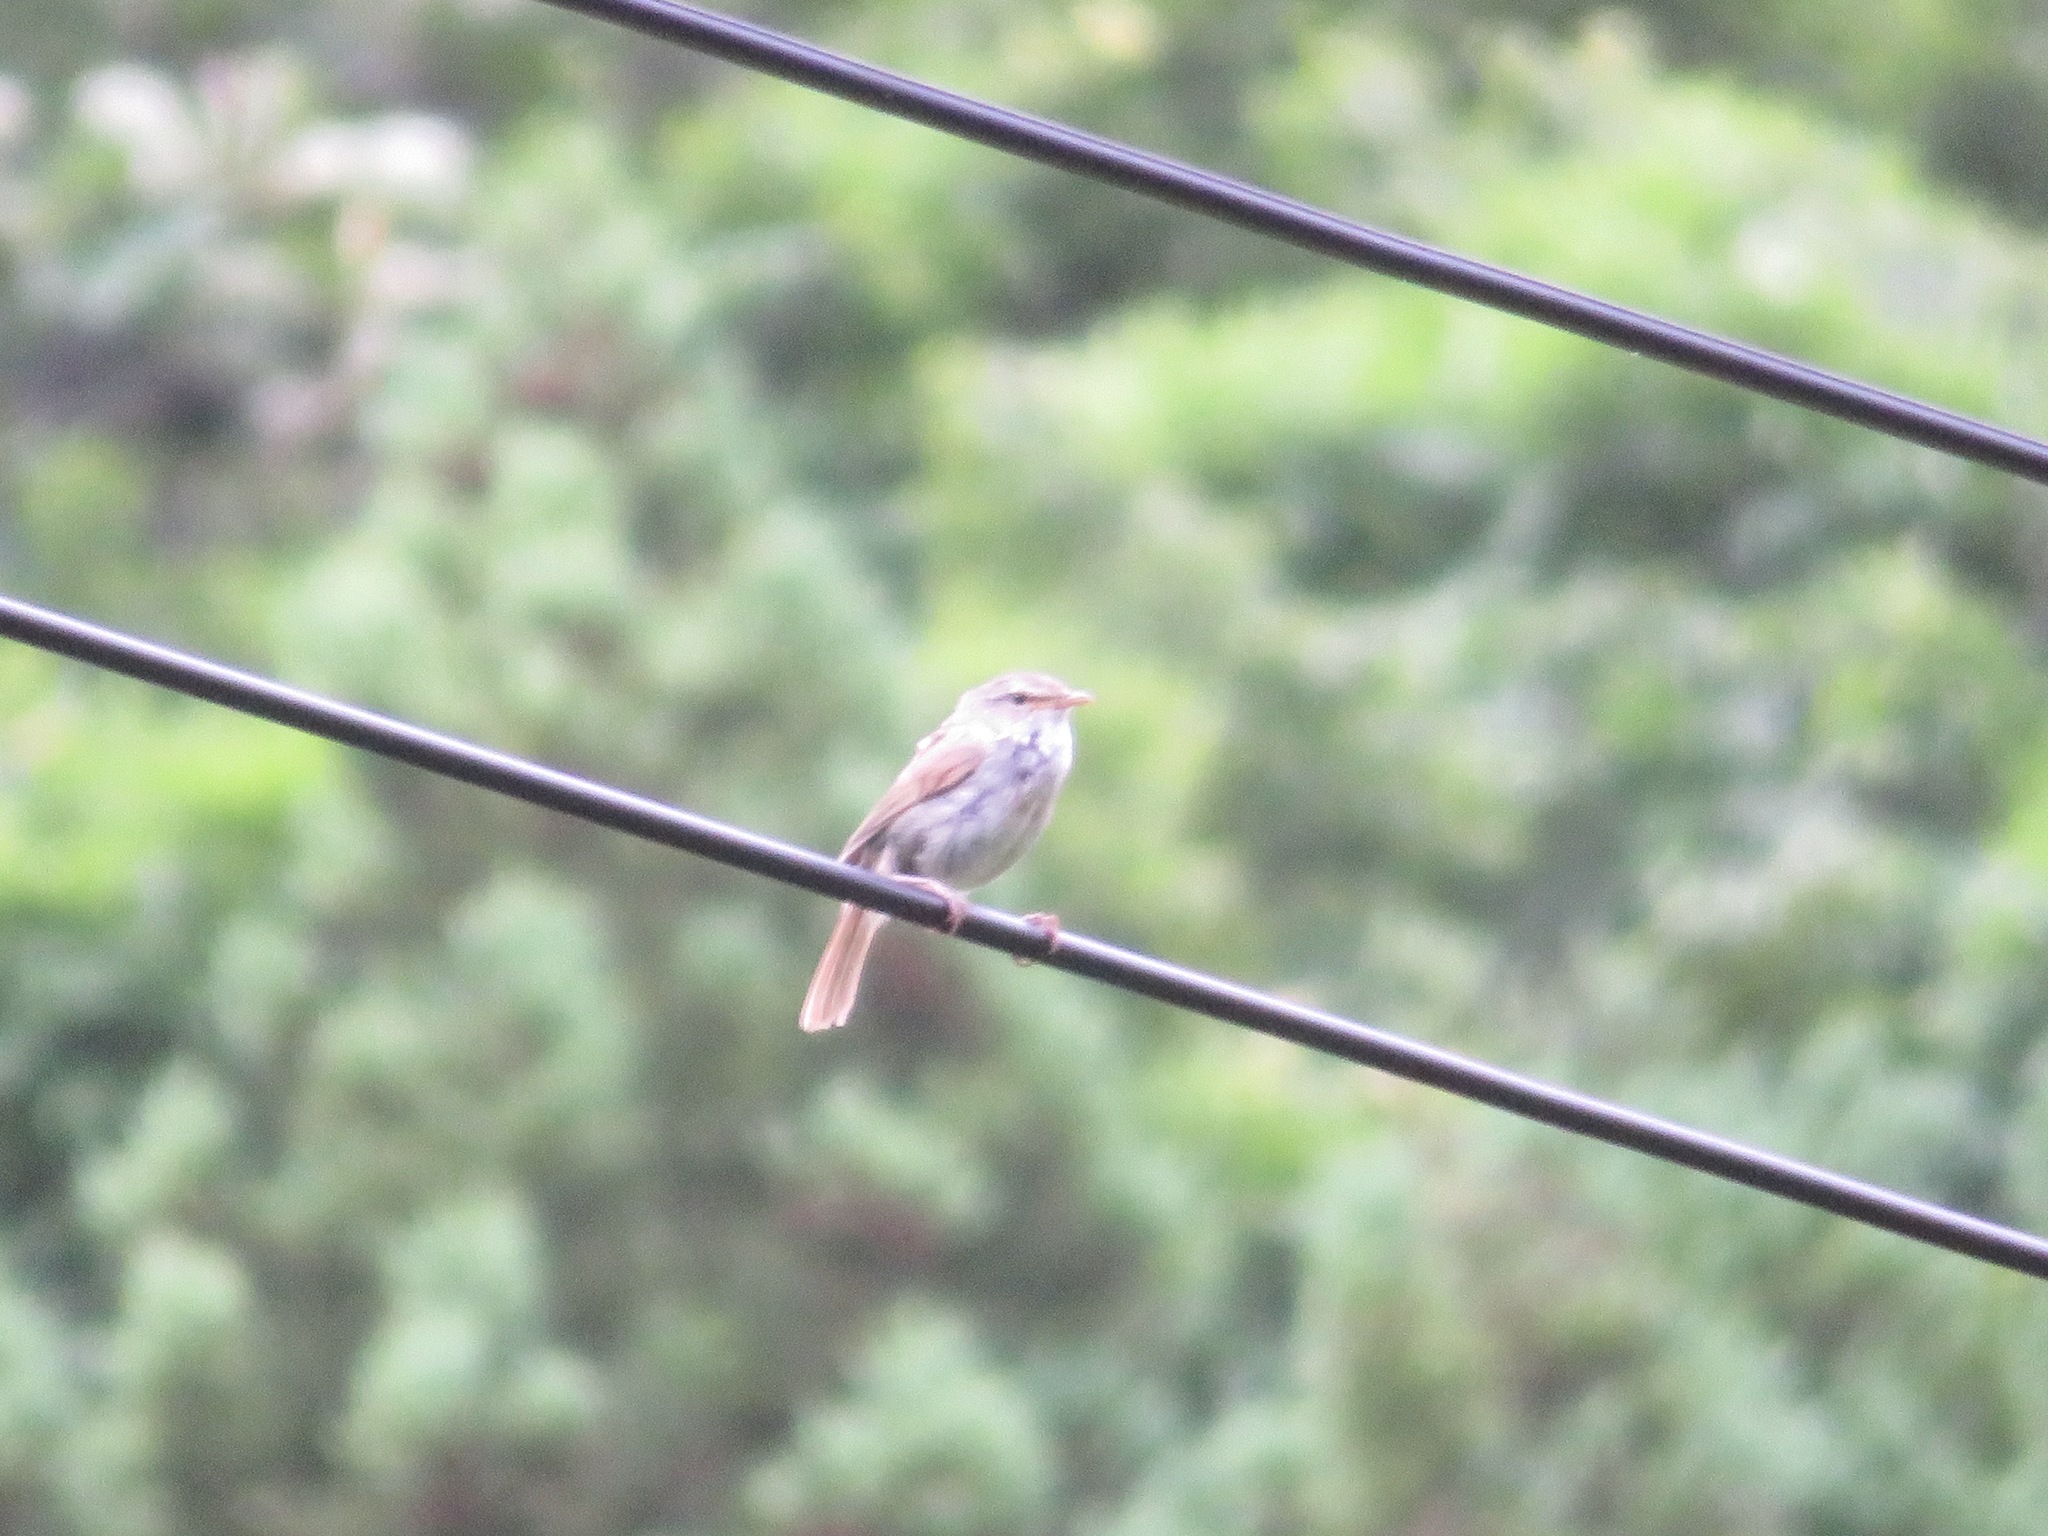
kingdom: Animalia
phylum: Chordata
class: Aves
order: Passeriformes
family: Cettiidae
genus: Horornis
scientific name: Horornis diphone
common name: Japanese bush warbler
